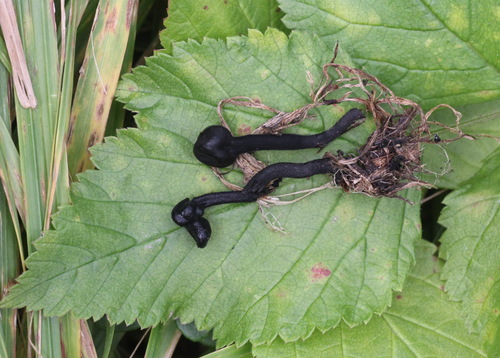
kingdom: Fungi
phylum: Ascomycota
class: Geoglossomycetes
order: Geoglossales
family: Geoglossaceae
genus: Trichoglossum
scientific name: Trichoglossum hirsutum
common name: Hairy earthtongue
